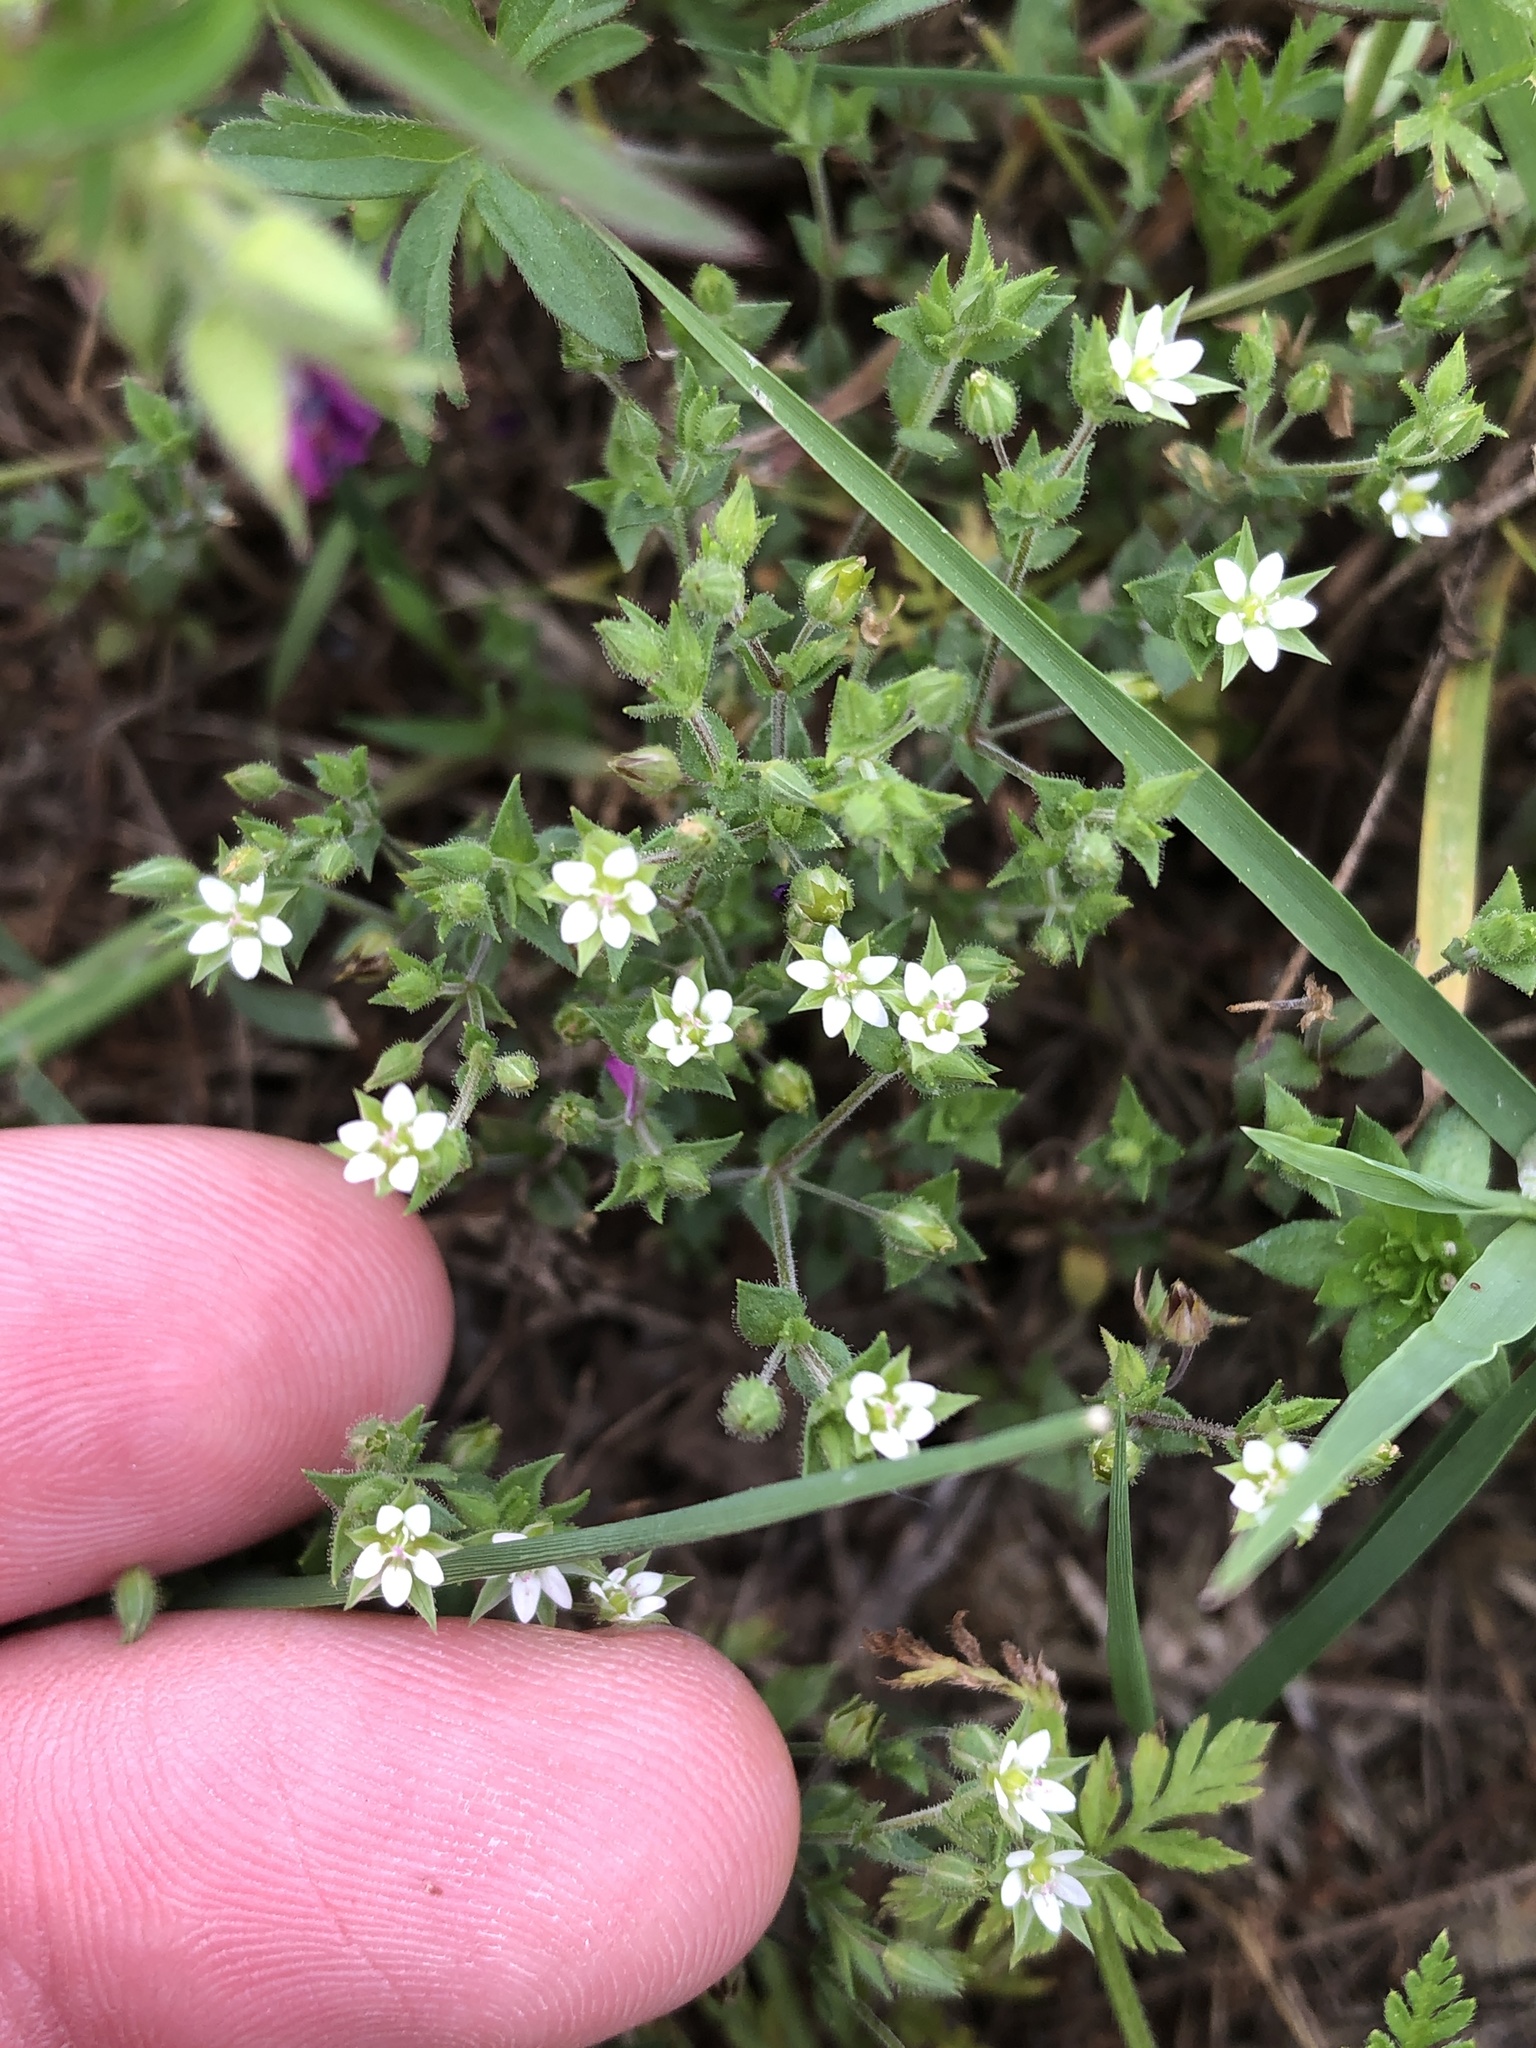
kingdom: Plantae
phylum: Tracheophyta
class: Magnoliopsida
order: Caryophyllales
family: Caryophyllaceae
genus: Arenaria
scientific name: Arenaria serpyllifolia
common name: Thyme-leaved sandwort
